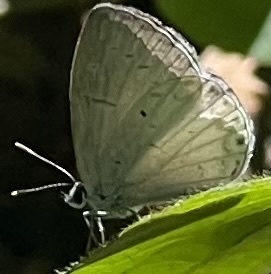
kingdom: Animalia
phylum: Arthropoda
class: Insecta
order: Lepidoptera
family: Lycaenidae
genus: Cyaniris
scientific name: Cyaniris neglecta
